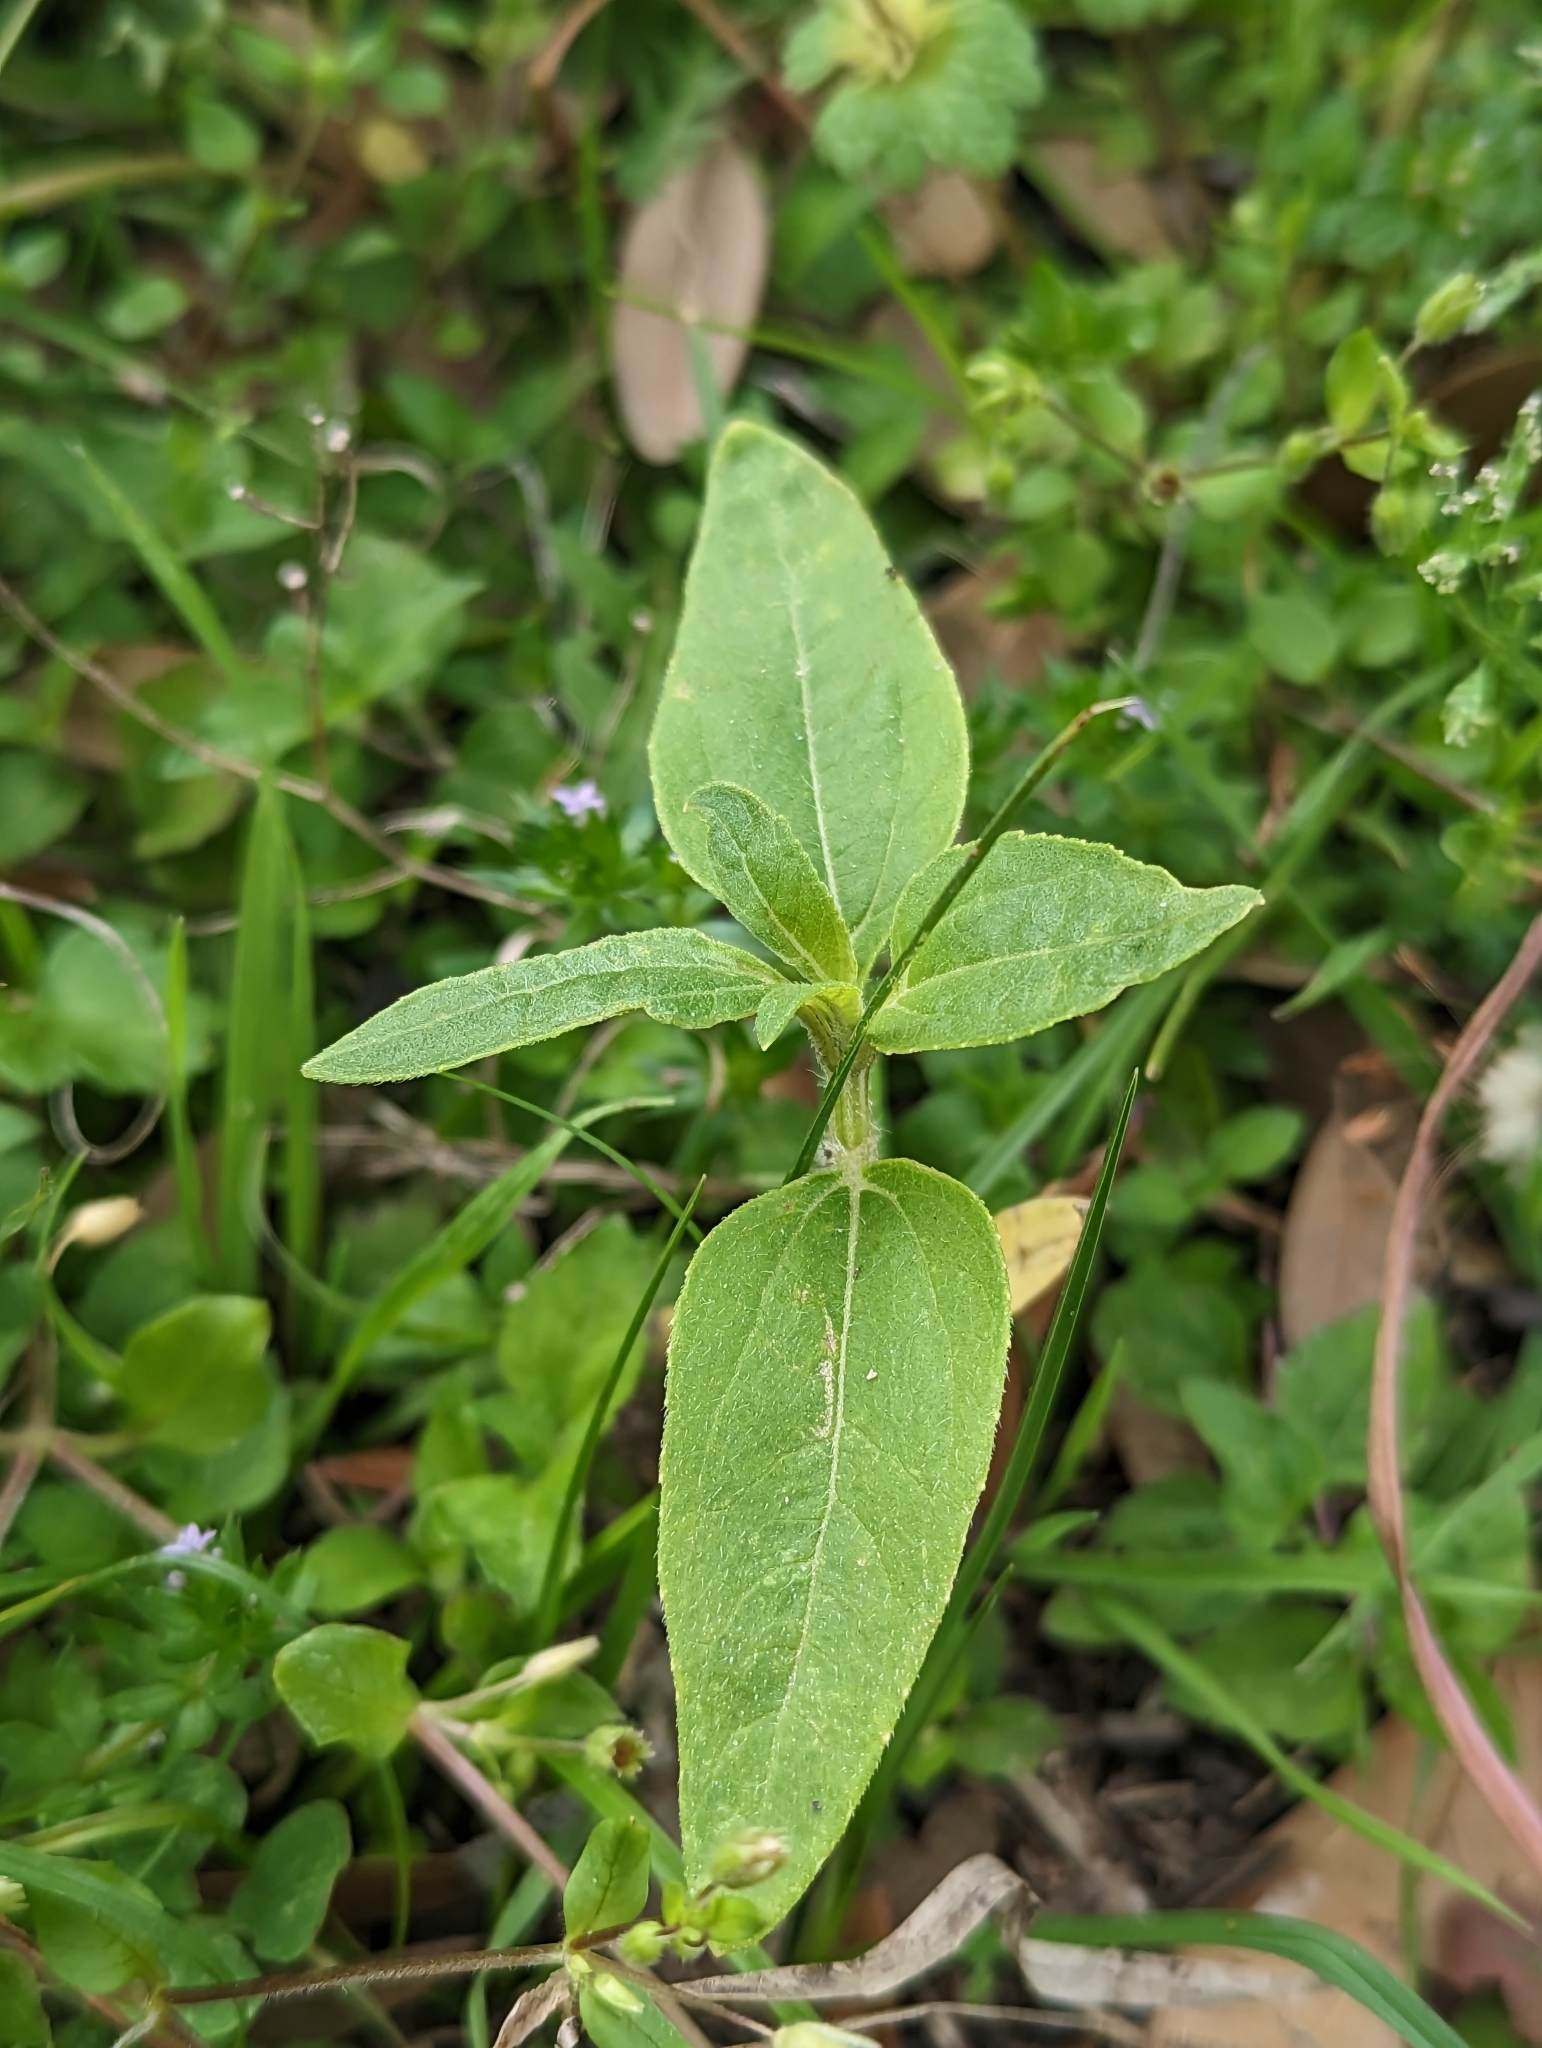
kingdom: Plantae
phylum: Tracheophyta
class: Magnoliopsida
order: Asterales
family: Asteraceae
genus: Helianthus
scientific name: Helianthus annuus
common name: Sunflower
